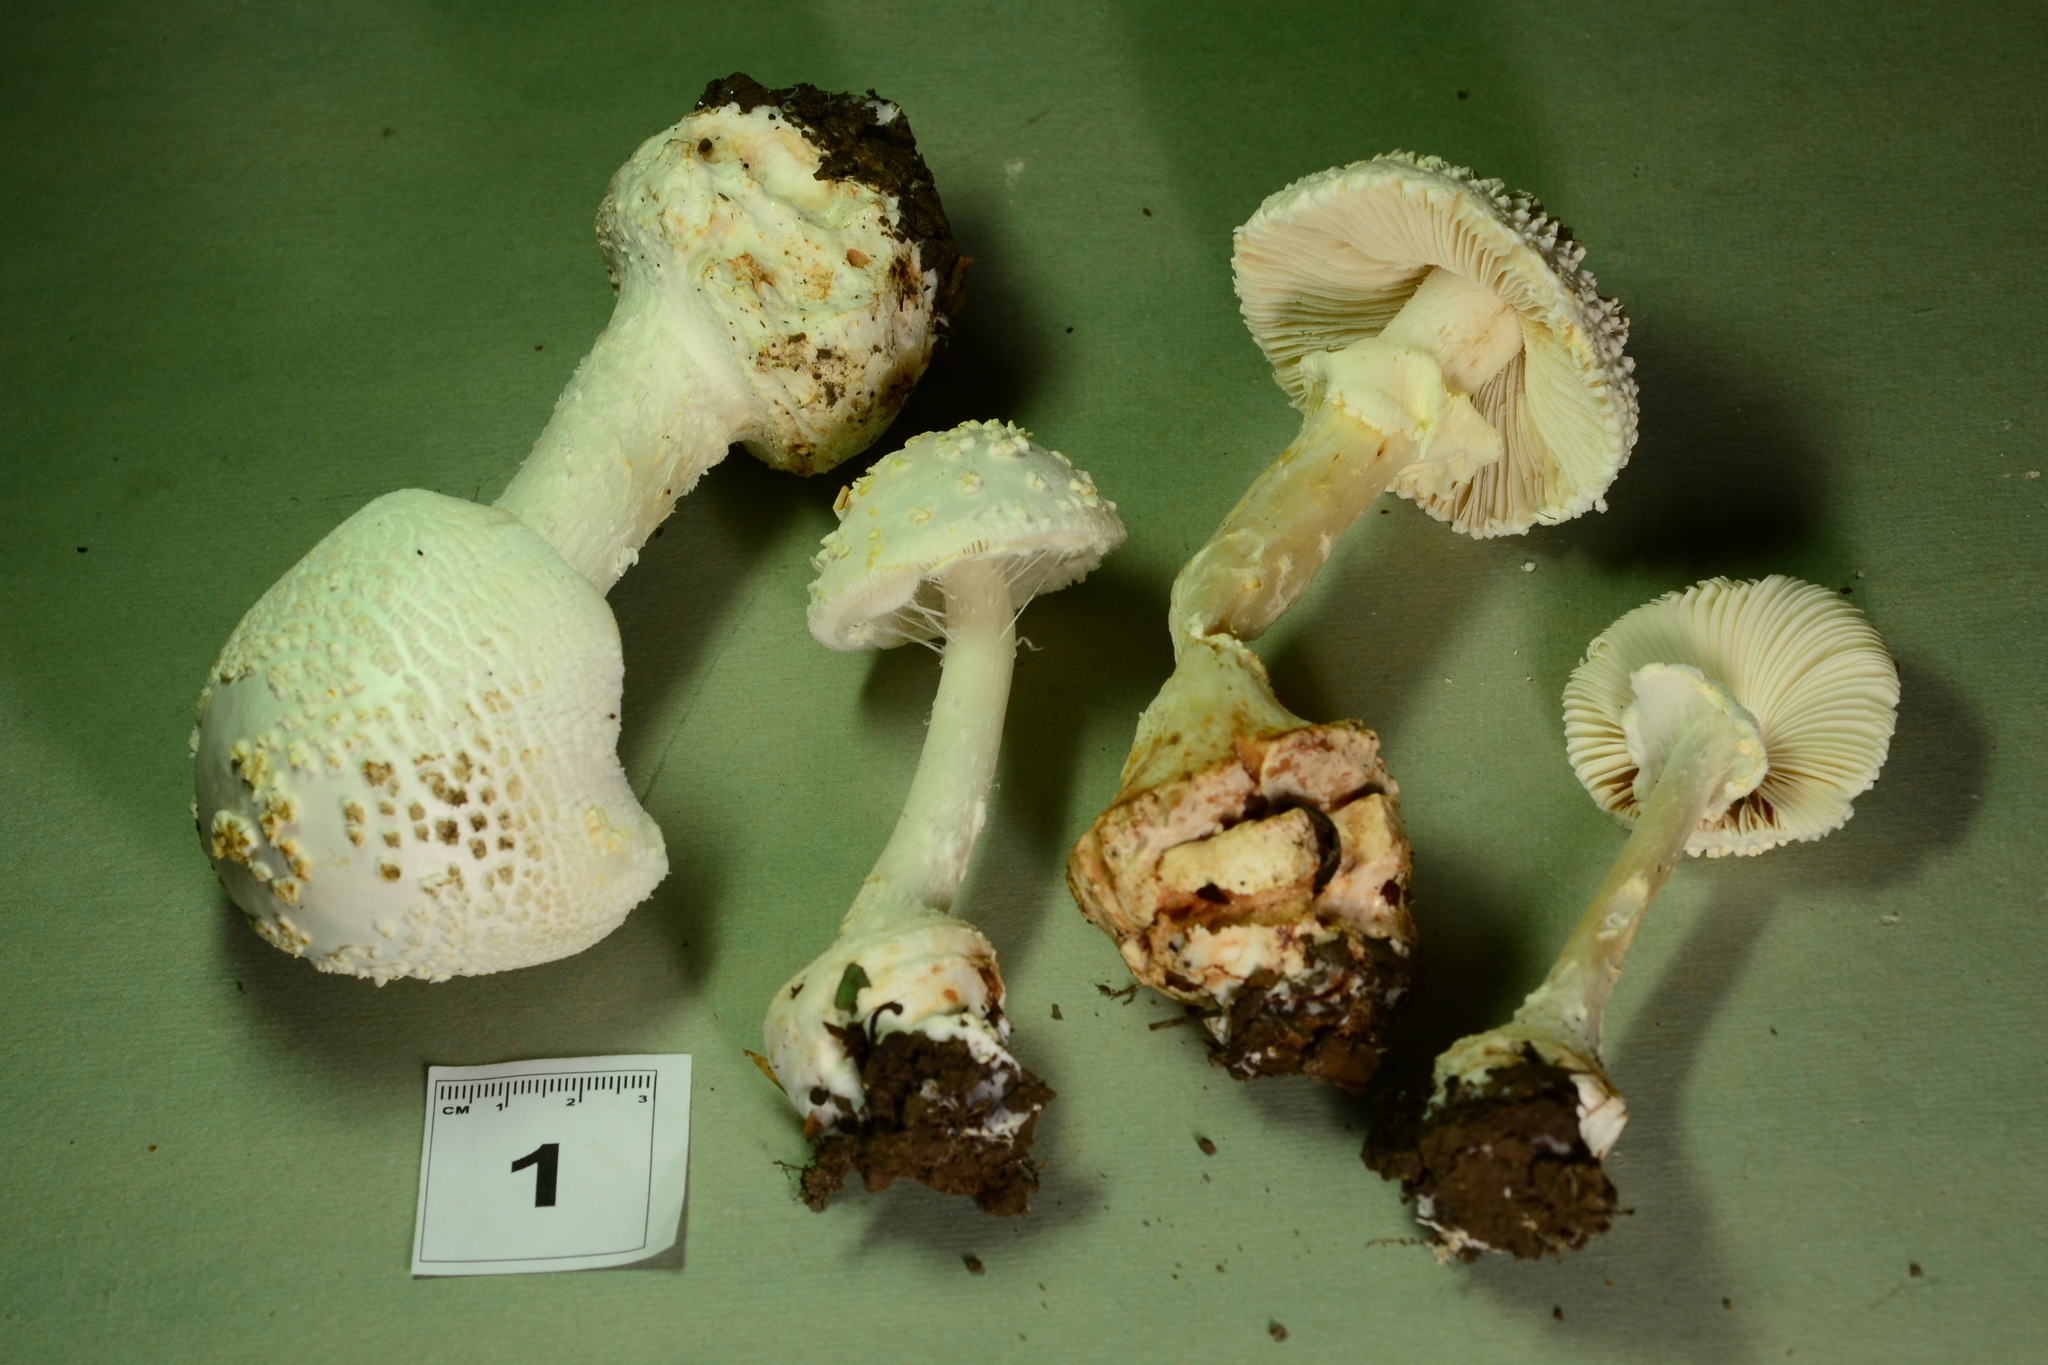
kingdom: Fungi
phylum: Basidiomycota
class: Agaricomycetes
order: Agaricales
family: Amanitaceae
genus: Amanita
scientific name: Amanita abrupta
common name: American abrupt-bulbed lepidella
